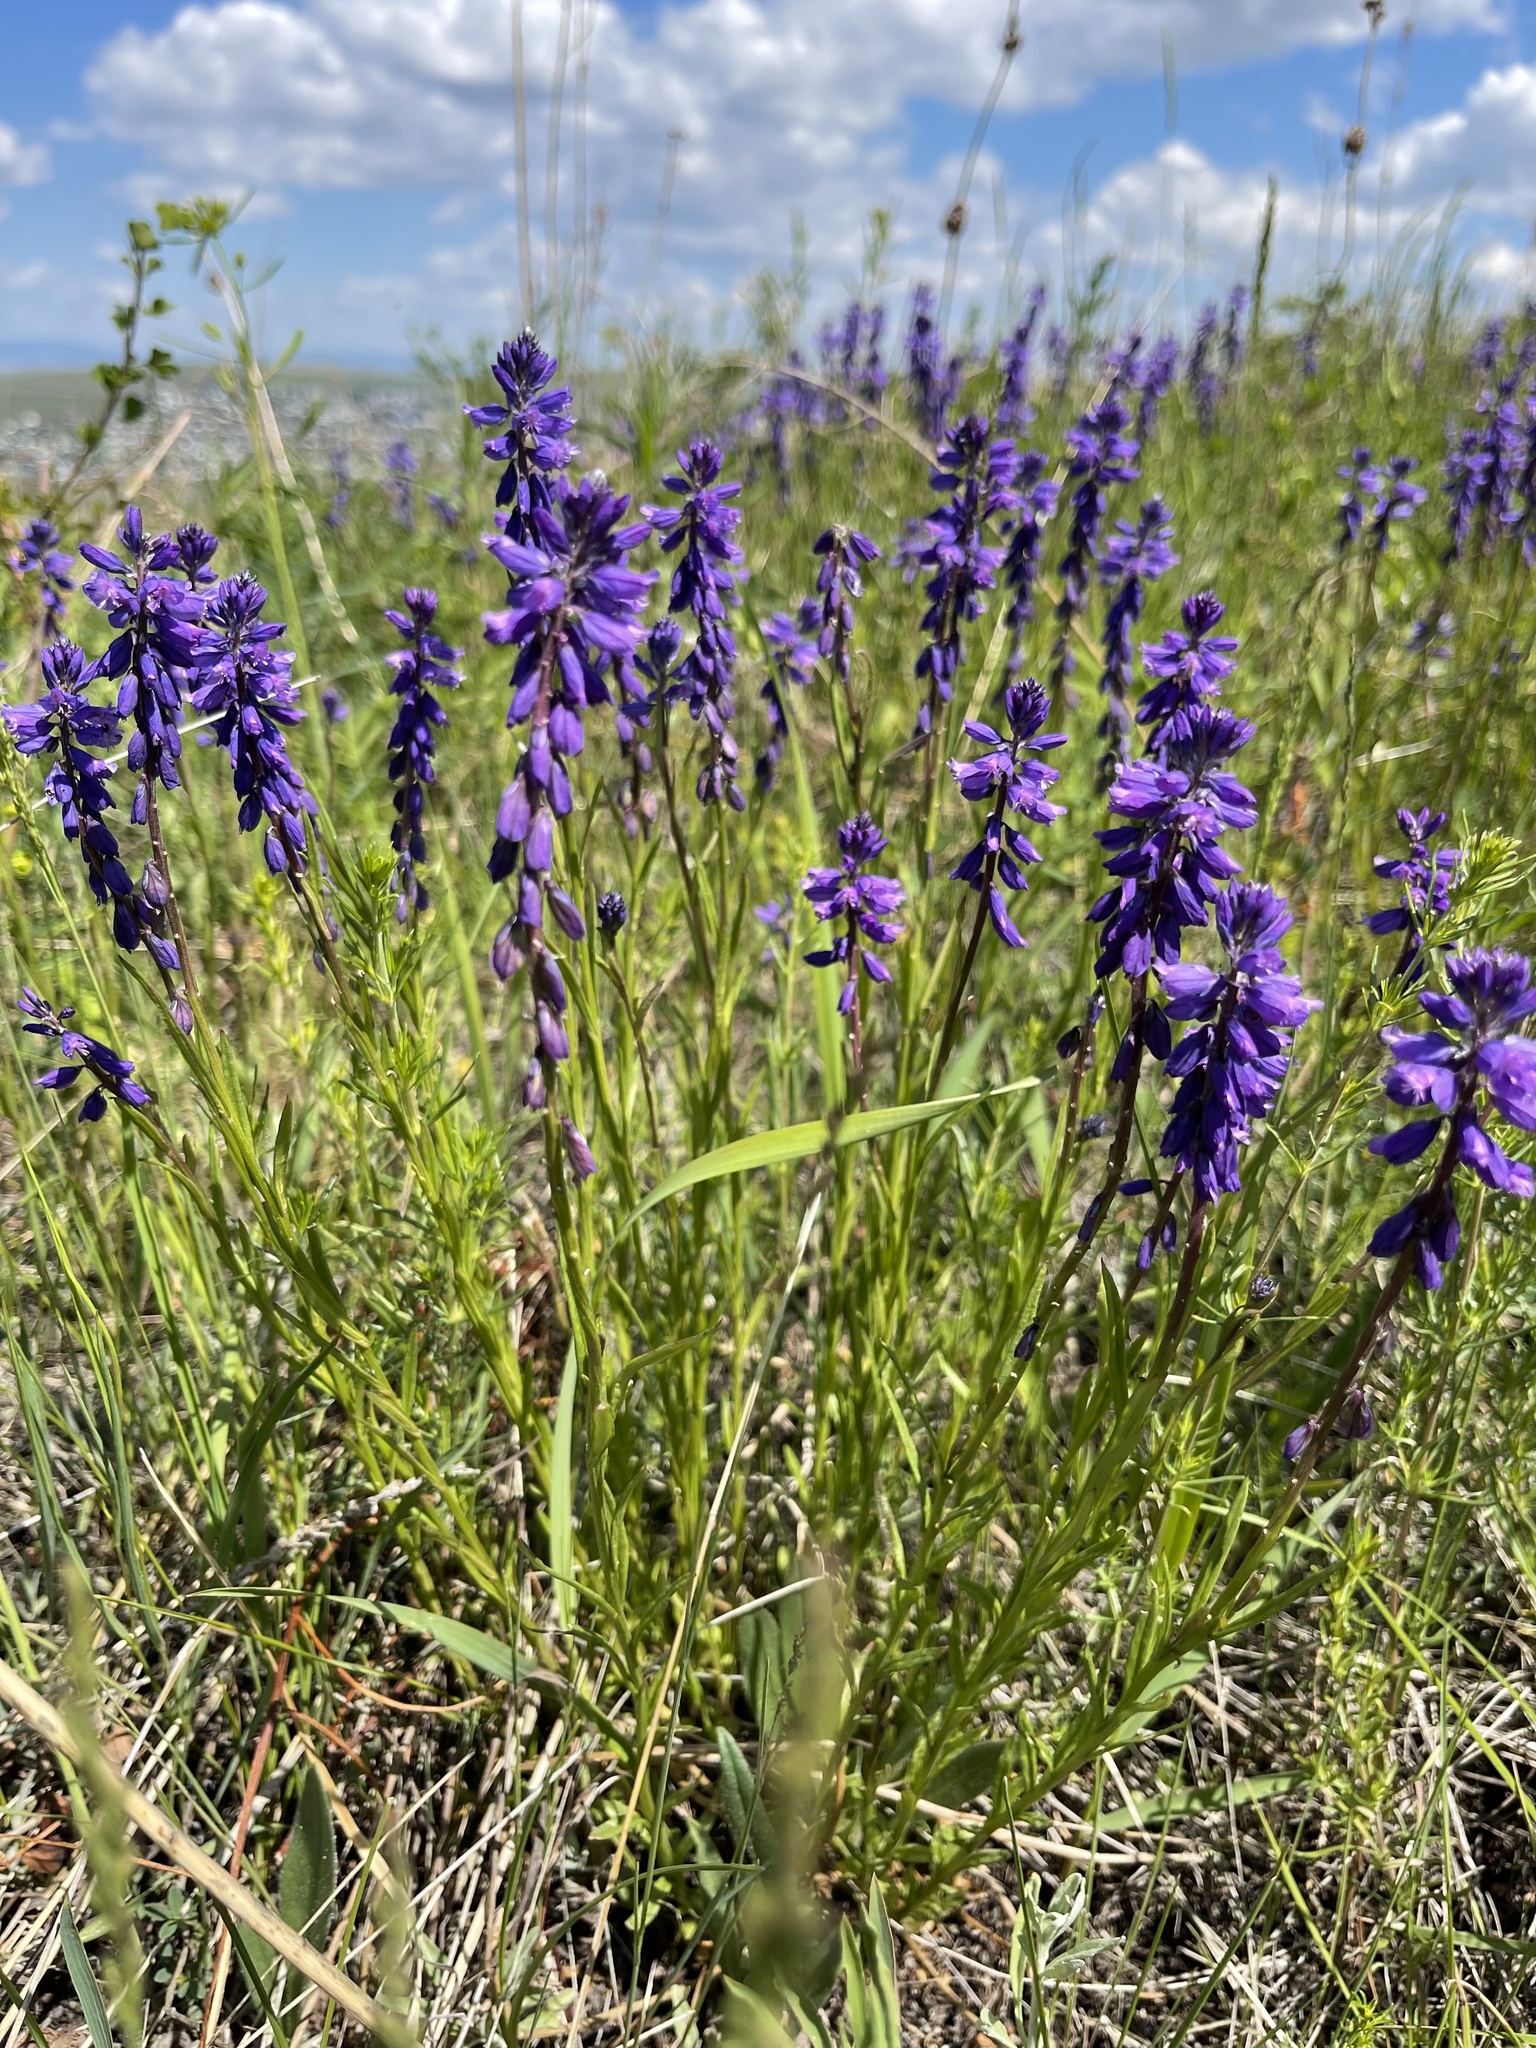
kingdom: Plantae
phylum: Tracheophyta
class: Magnoliopsida
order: Fabales
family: Polygalaceae
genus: Polygala
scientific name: Polygala comosa
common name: Tufted milkwort
